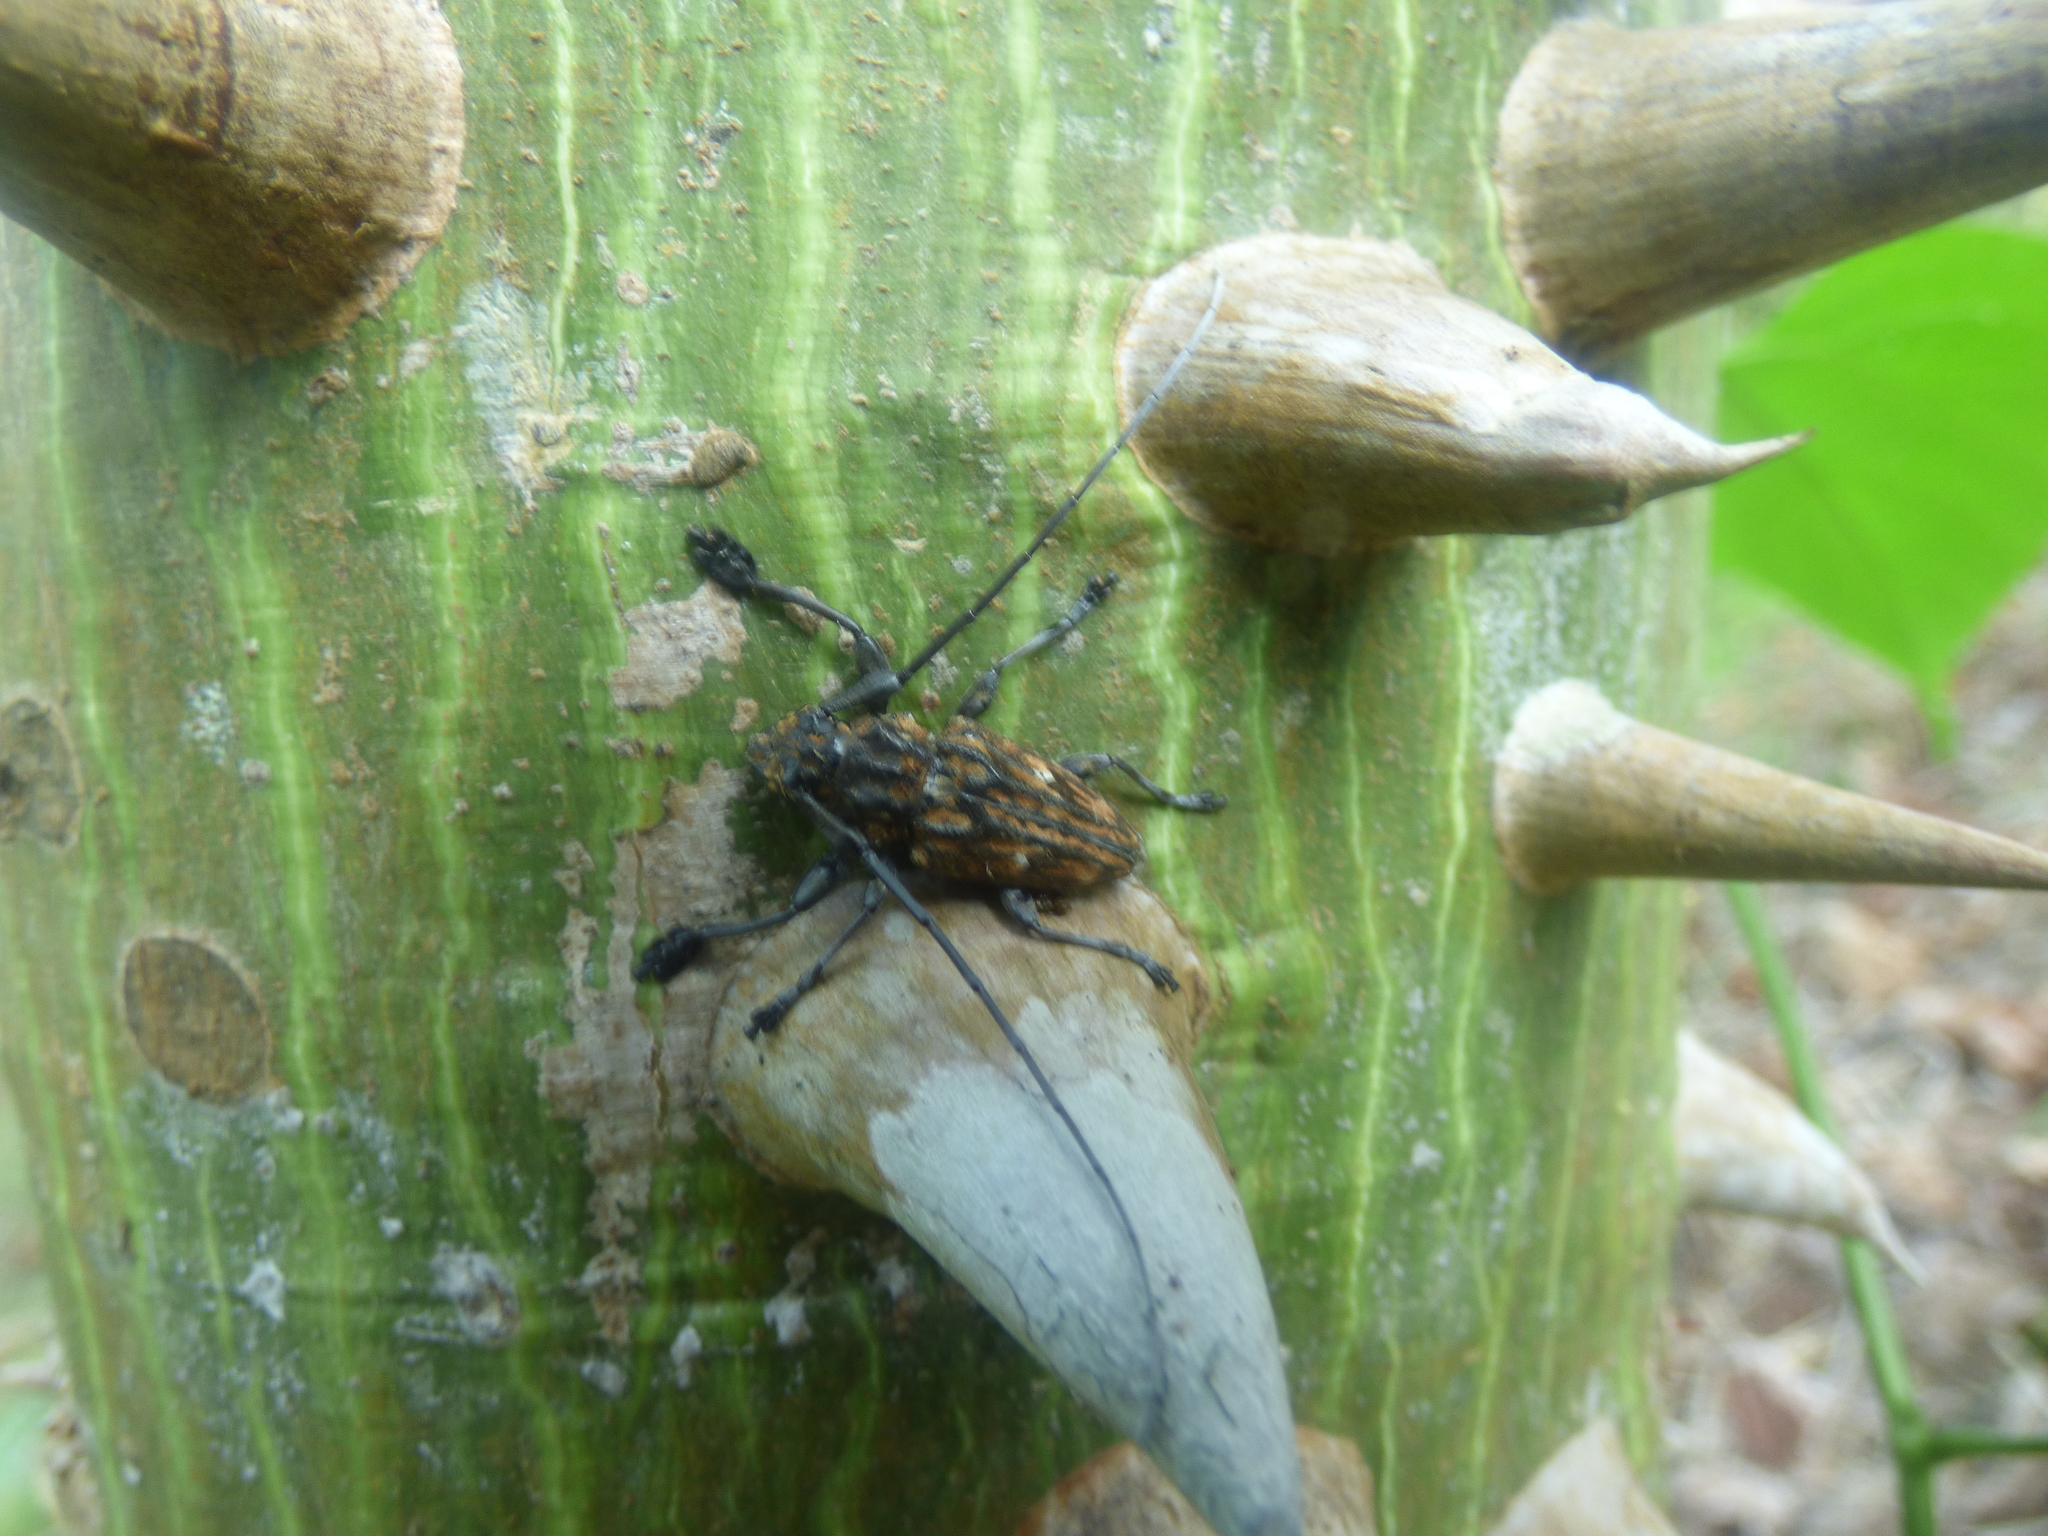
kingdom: Animalia
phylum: Arthropoda
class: Insecta
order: Coleoptera
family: Cerambycidae
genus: Steirastoma
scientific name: Steirastoma histrionicum
